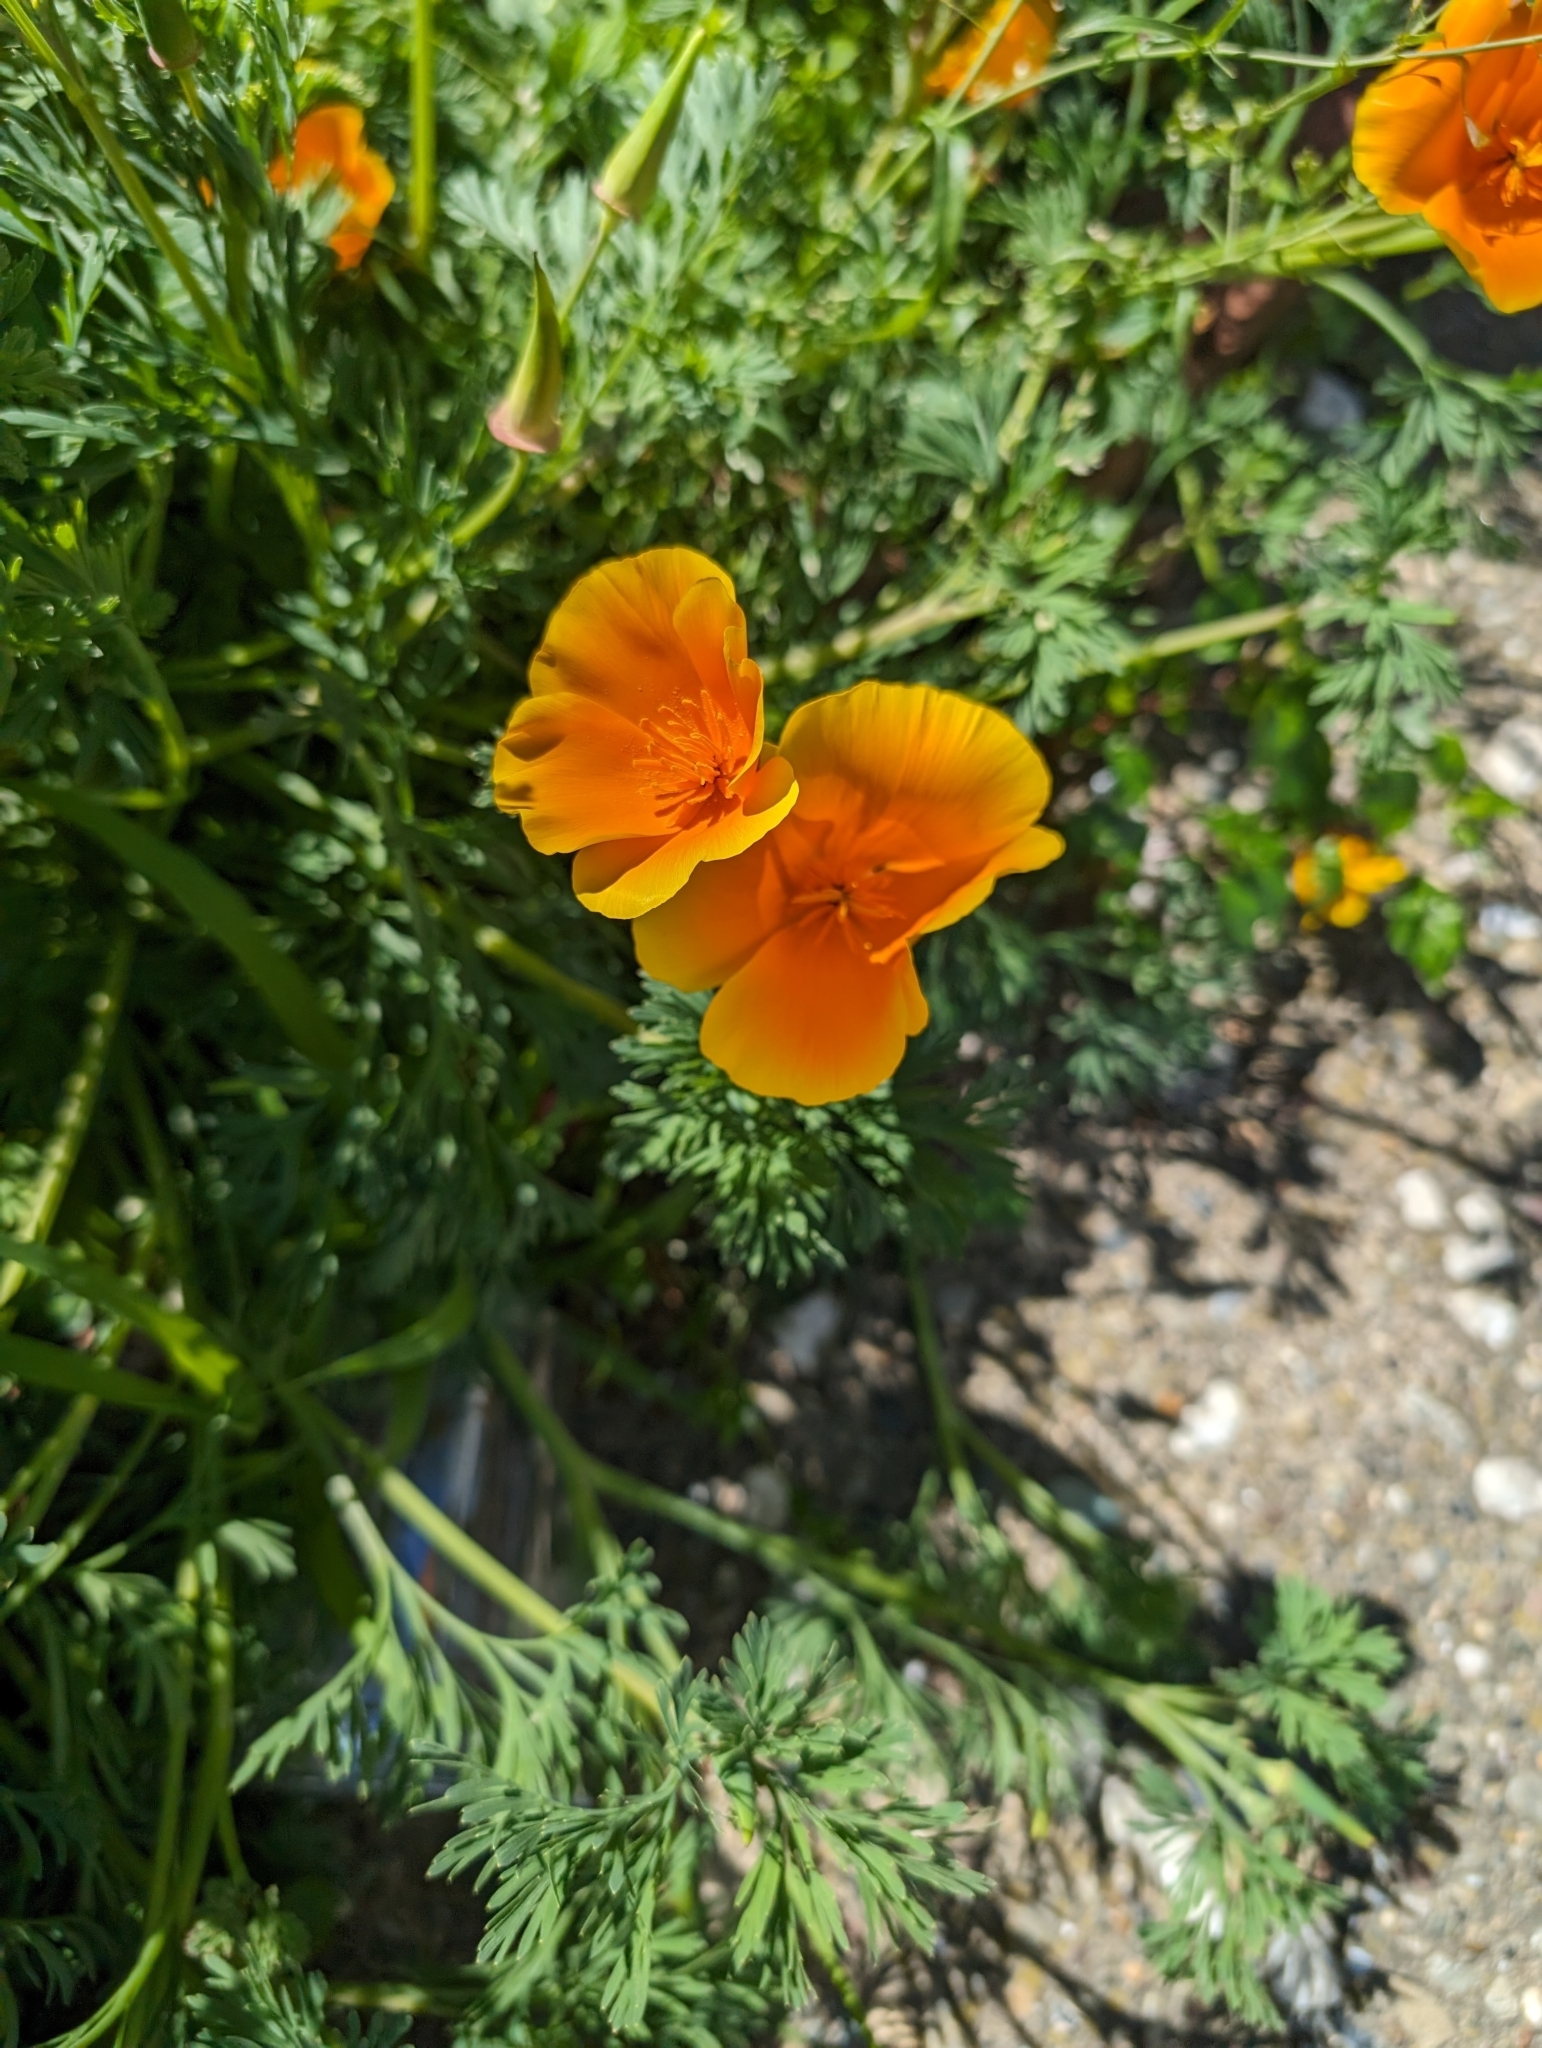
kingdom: Plantae
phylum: Tracheophyta
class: Magnoliopsida
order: Ranunculales
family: Papaveraceae
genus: Eschscholzia
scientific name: Eschscholzia californica
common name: California poppy
